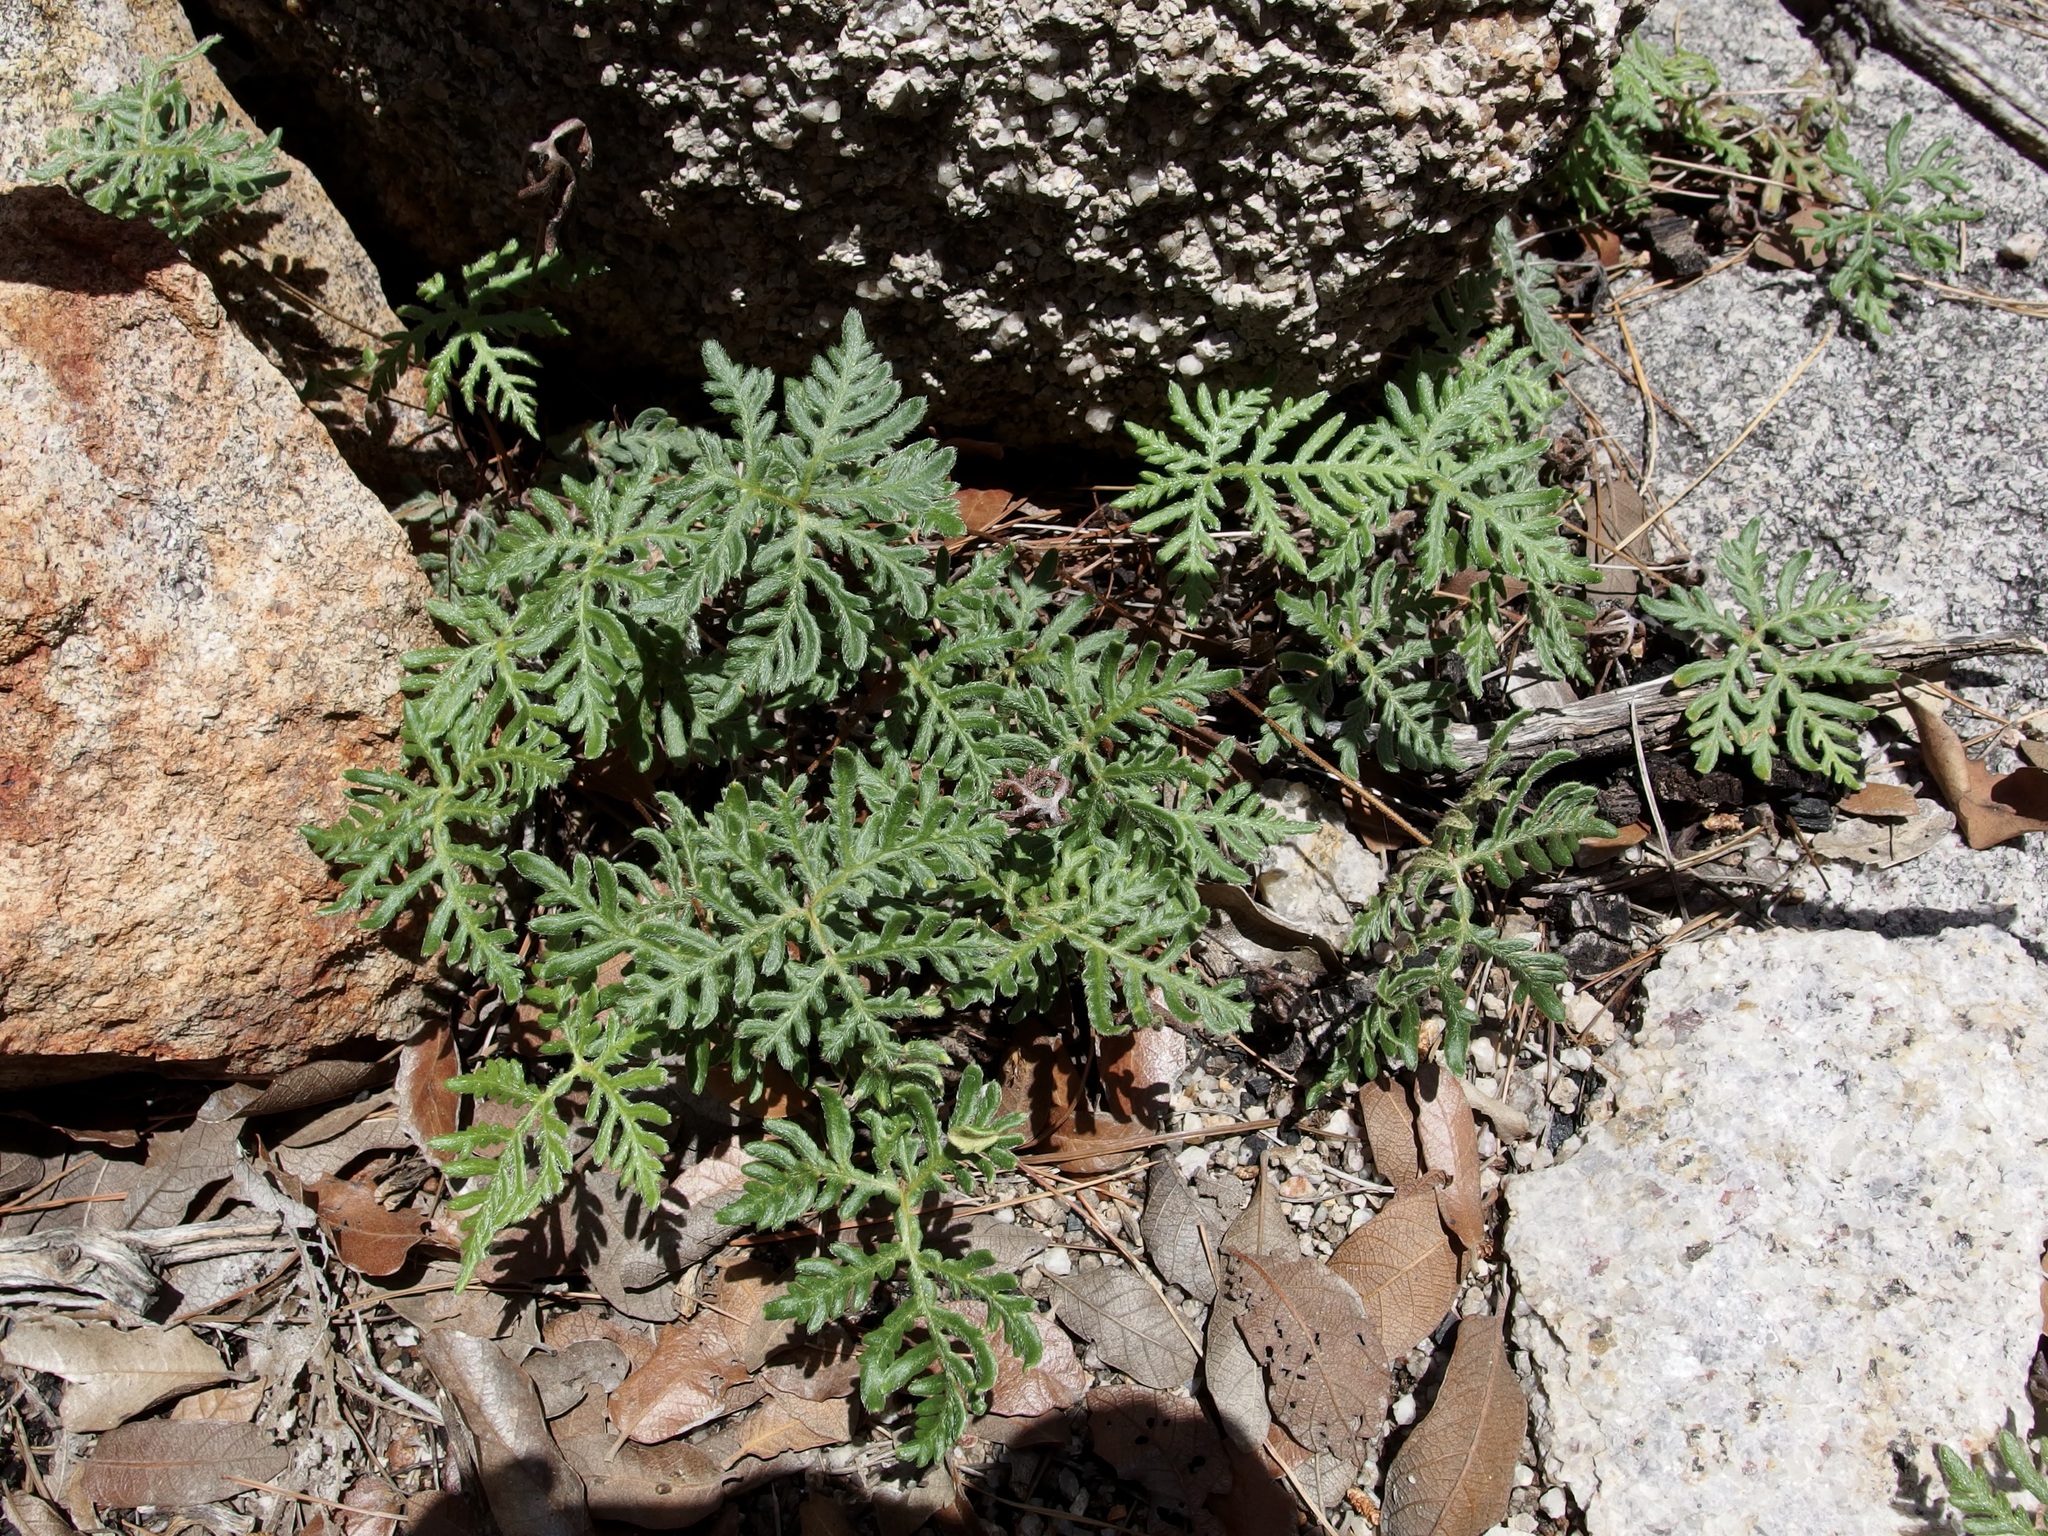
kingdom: Plantae
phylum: Tracheophyta
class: Polypodiopsida
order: Polypodiales
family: Pteridaceae
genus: Bommeria
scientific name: Bommeria hispida
